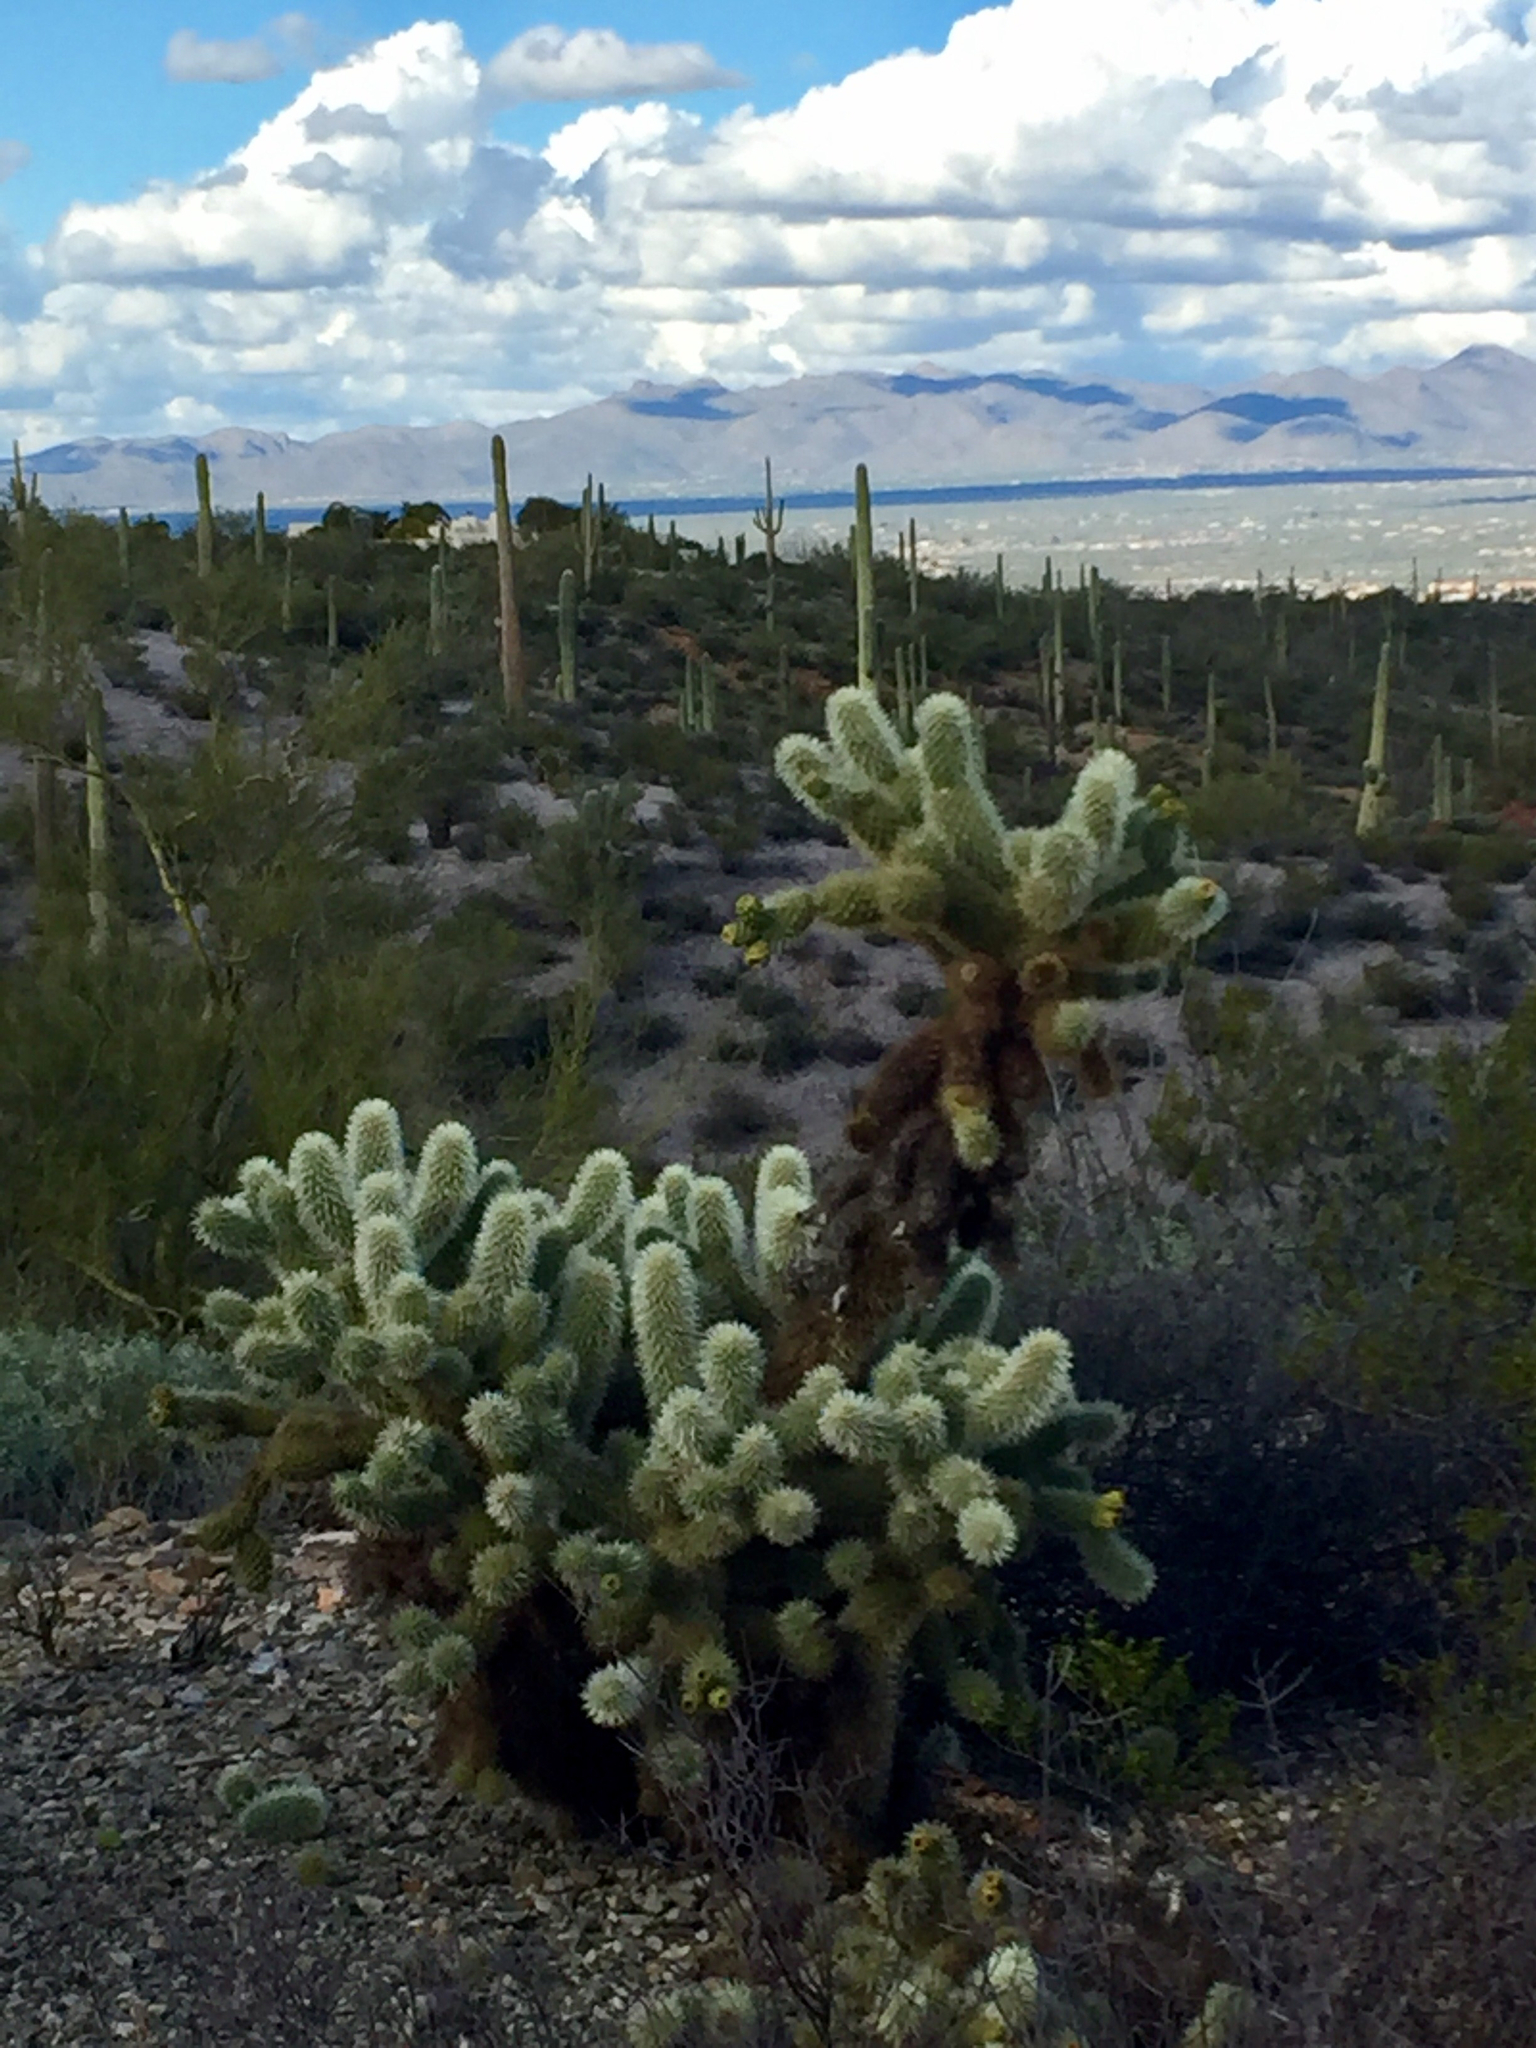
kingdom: Plantae
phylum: Tracheophyta
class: Magnoliopsida
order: Caryophyllales
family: Cactaceae
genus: Cylindropuntia
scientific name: Cylindropuntia fosbergii
